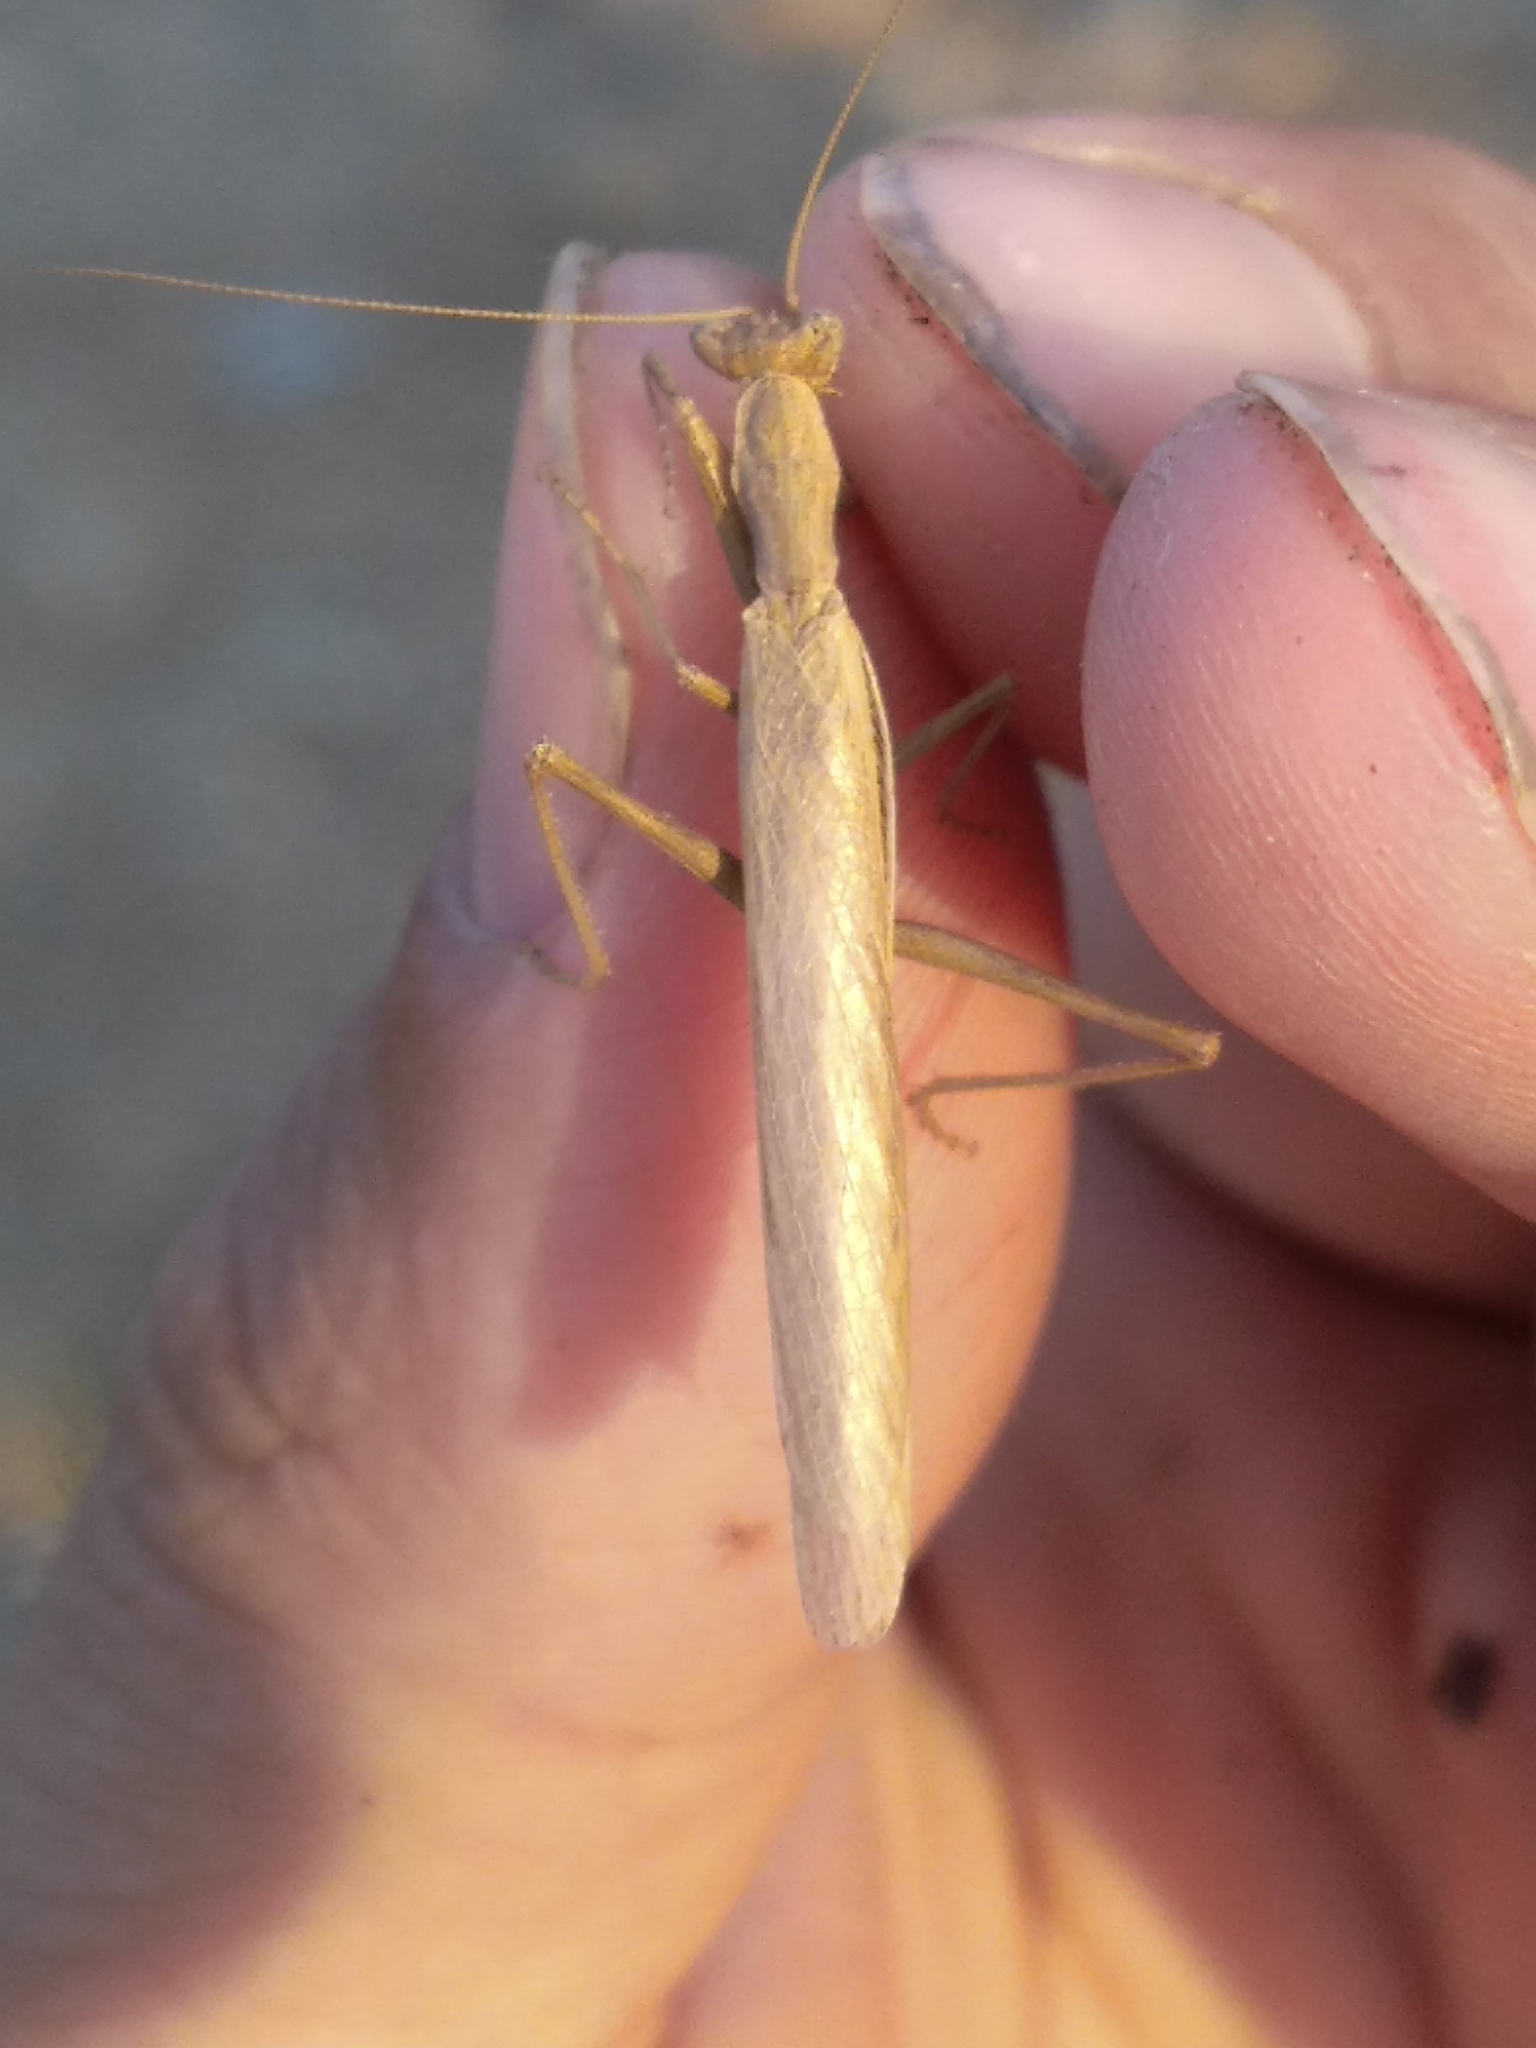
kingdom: Animalia
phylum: Arthropoda
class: Insecta
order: Mantodea
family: Amelidae
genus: Ameles
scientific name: Ameles decolor
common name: Dwarf mantis
